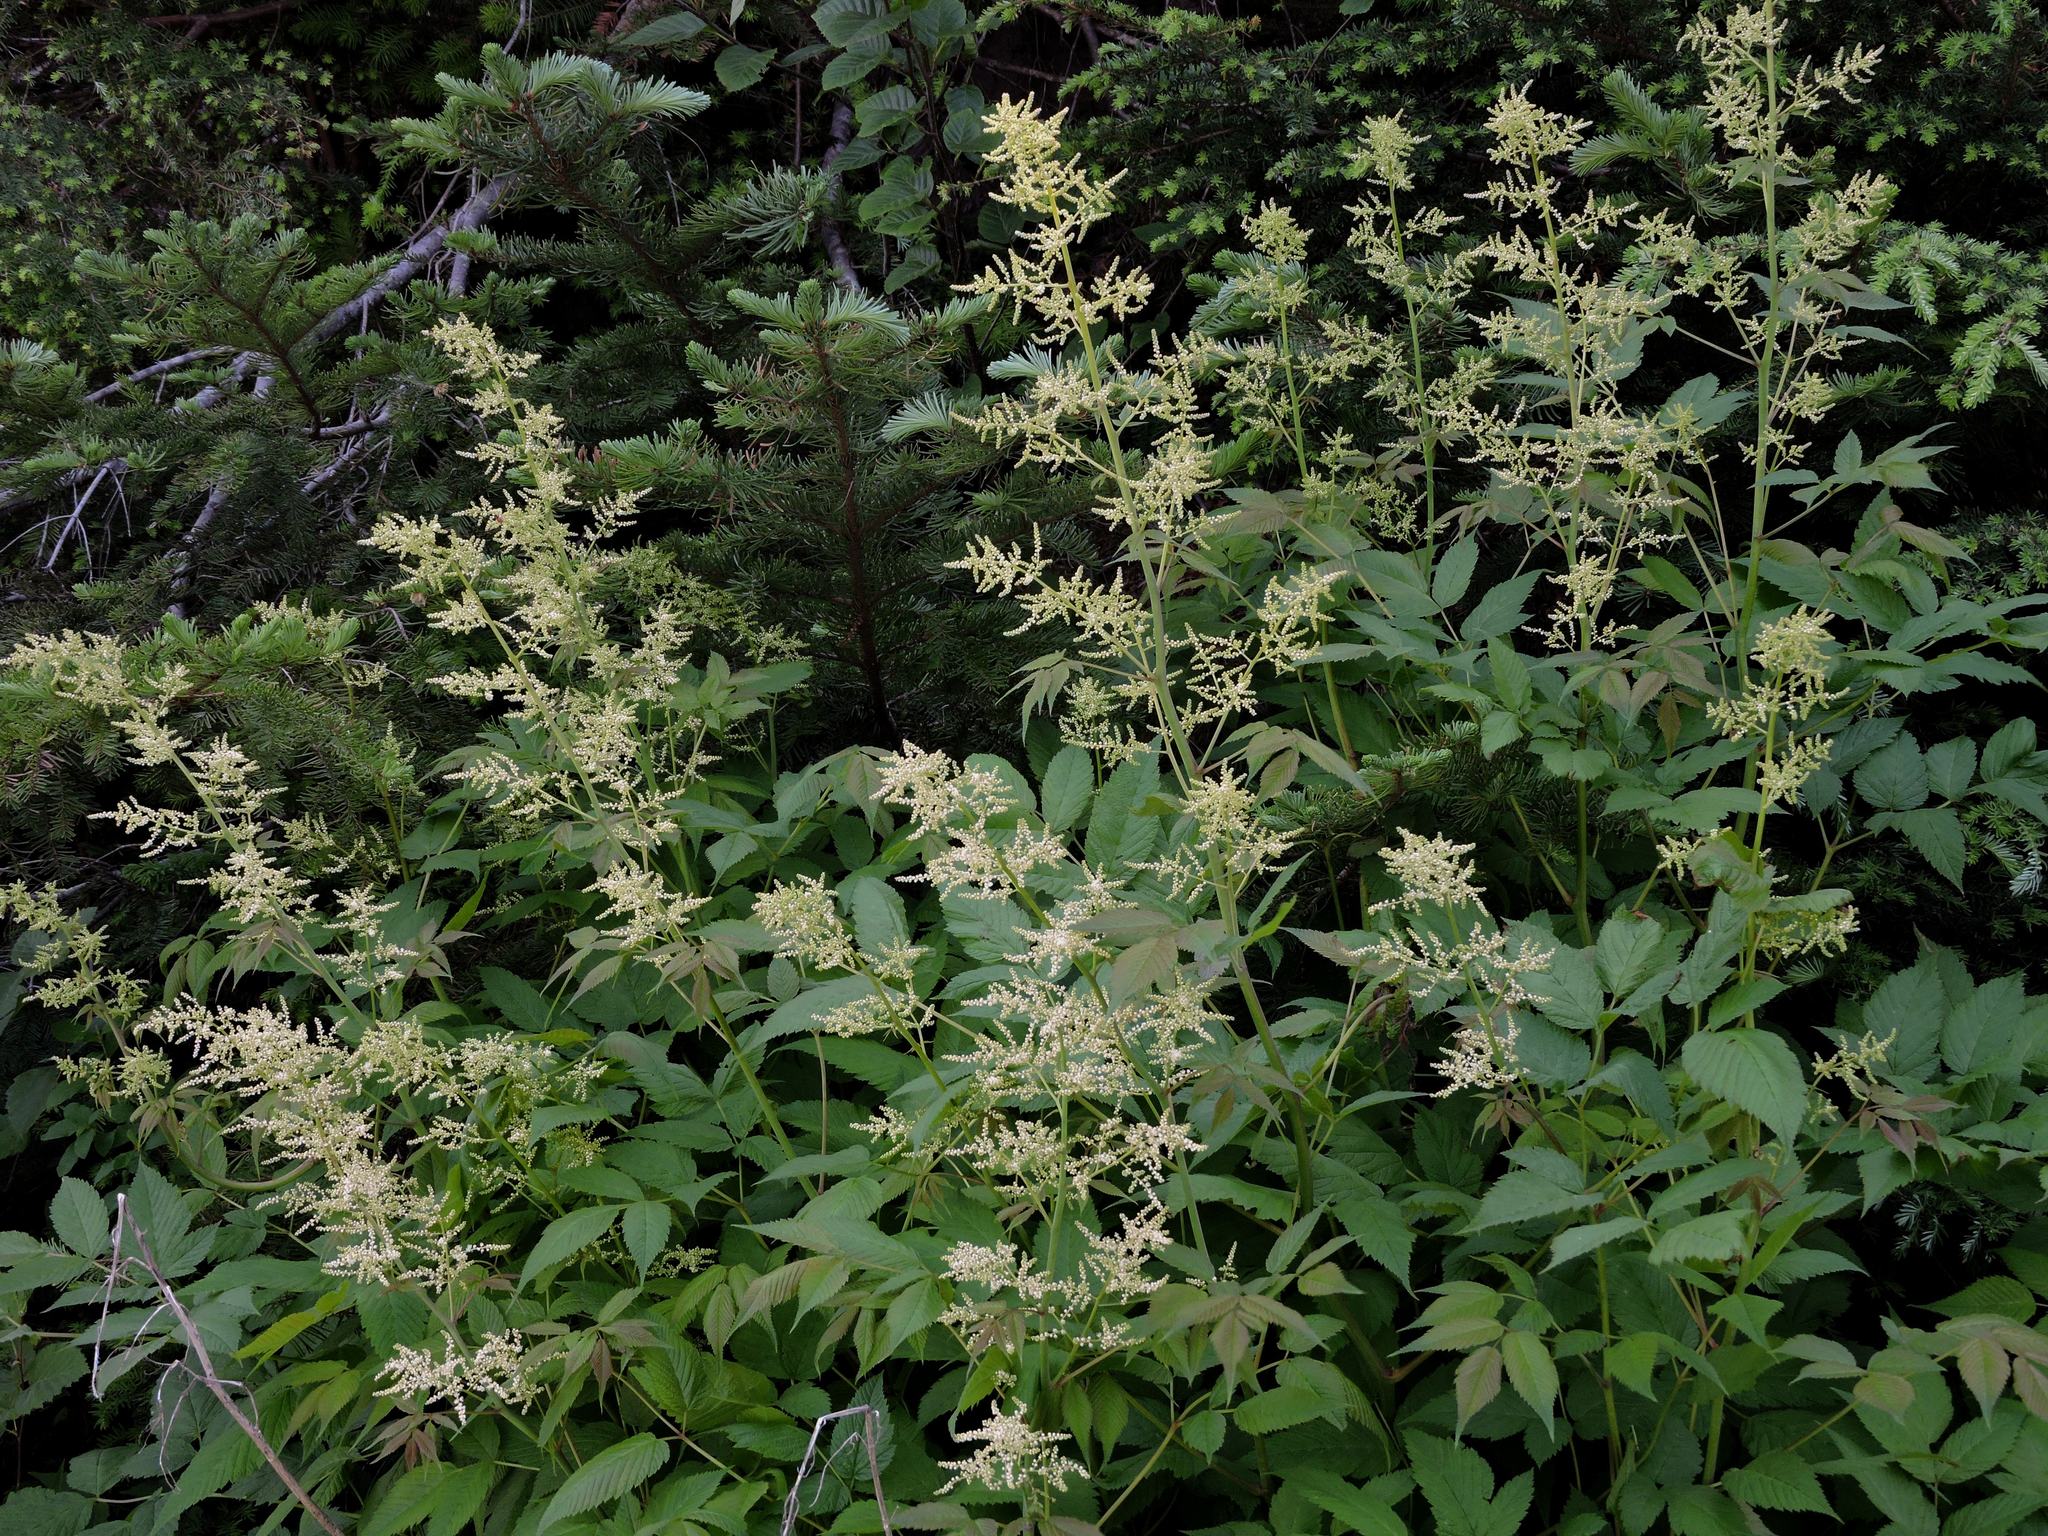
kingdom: Plantae
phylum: Tracheophyta
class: Magnoliopsida
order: Rosales
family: Rosaceae
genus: Aruncus
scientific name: Aruncus dioicus
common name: Buck's-beard
